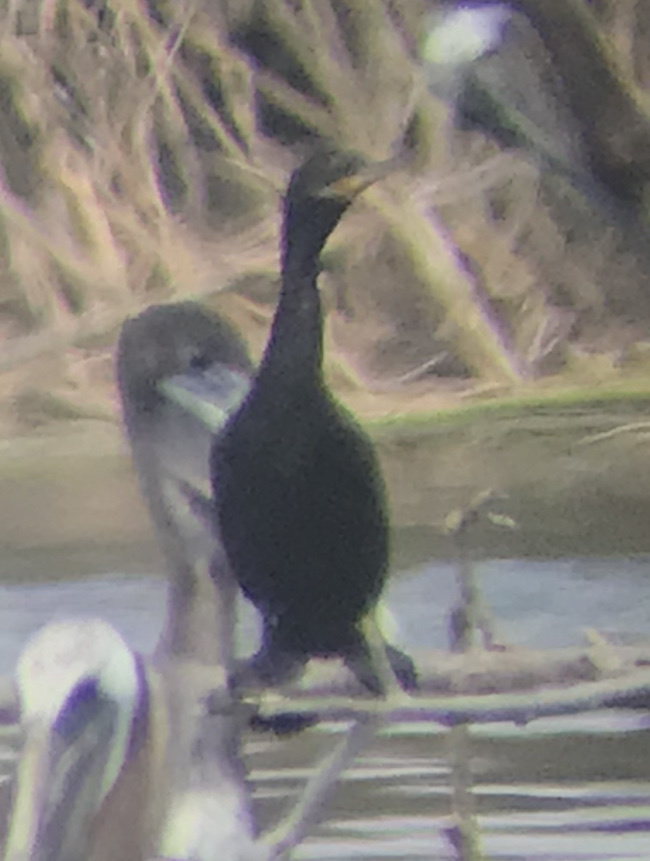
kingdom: Animalia
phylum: Chordata
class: Aves
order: Suliformes
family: Phalacrocoracidae
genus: Phalacrocorax
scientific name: Phalacrocorax brasilianus
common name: Neotropic cormorant
